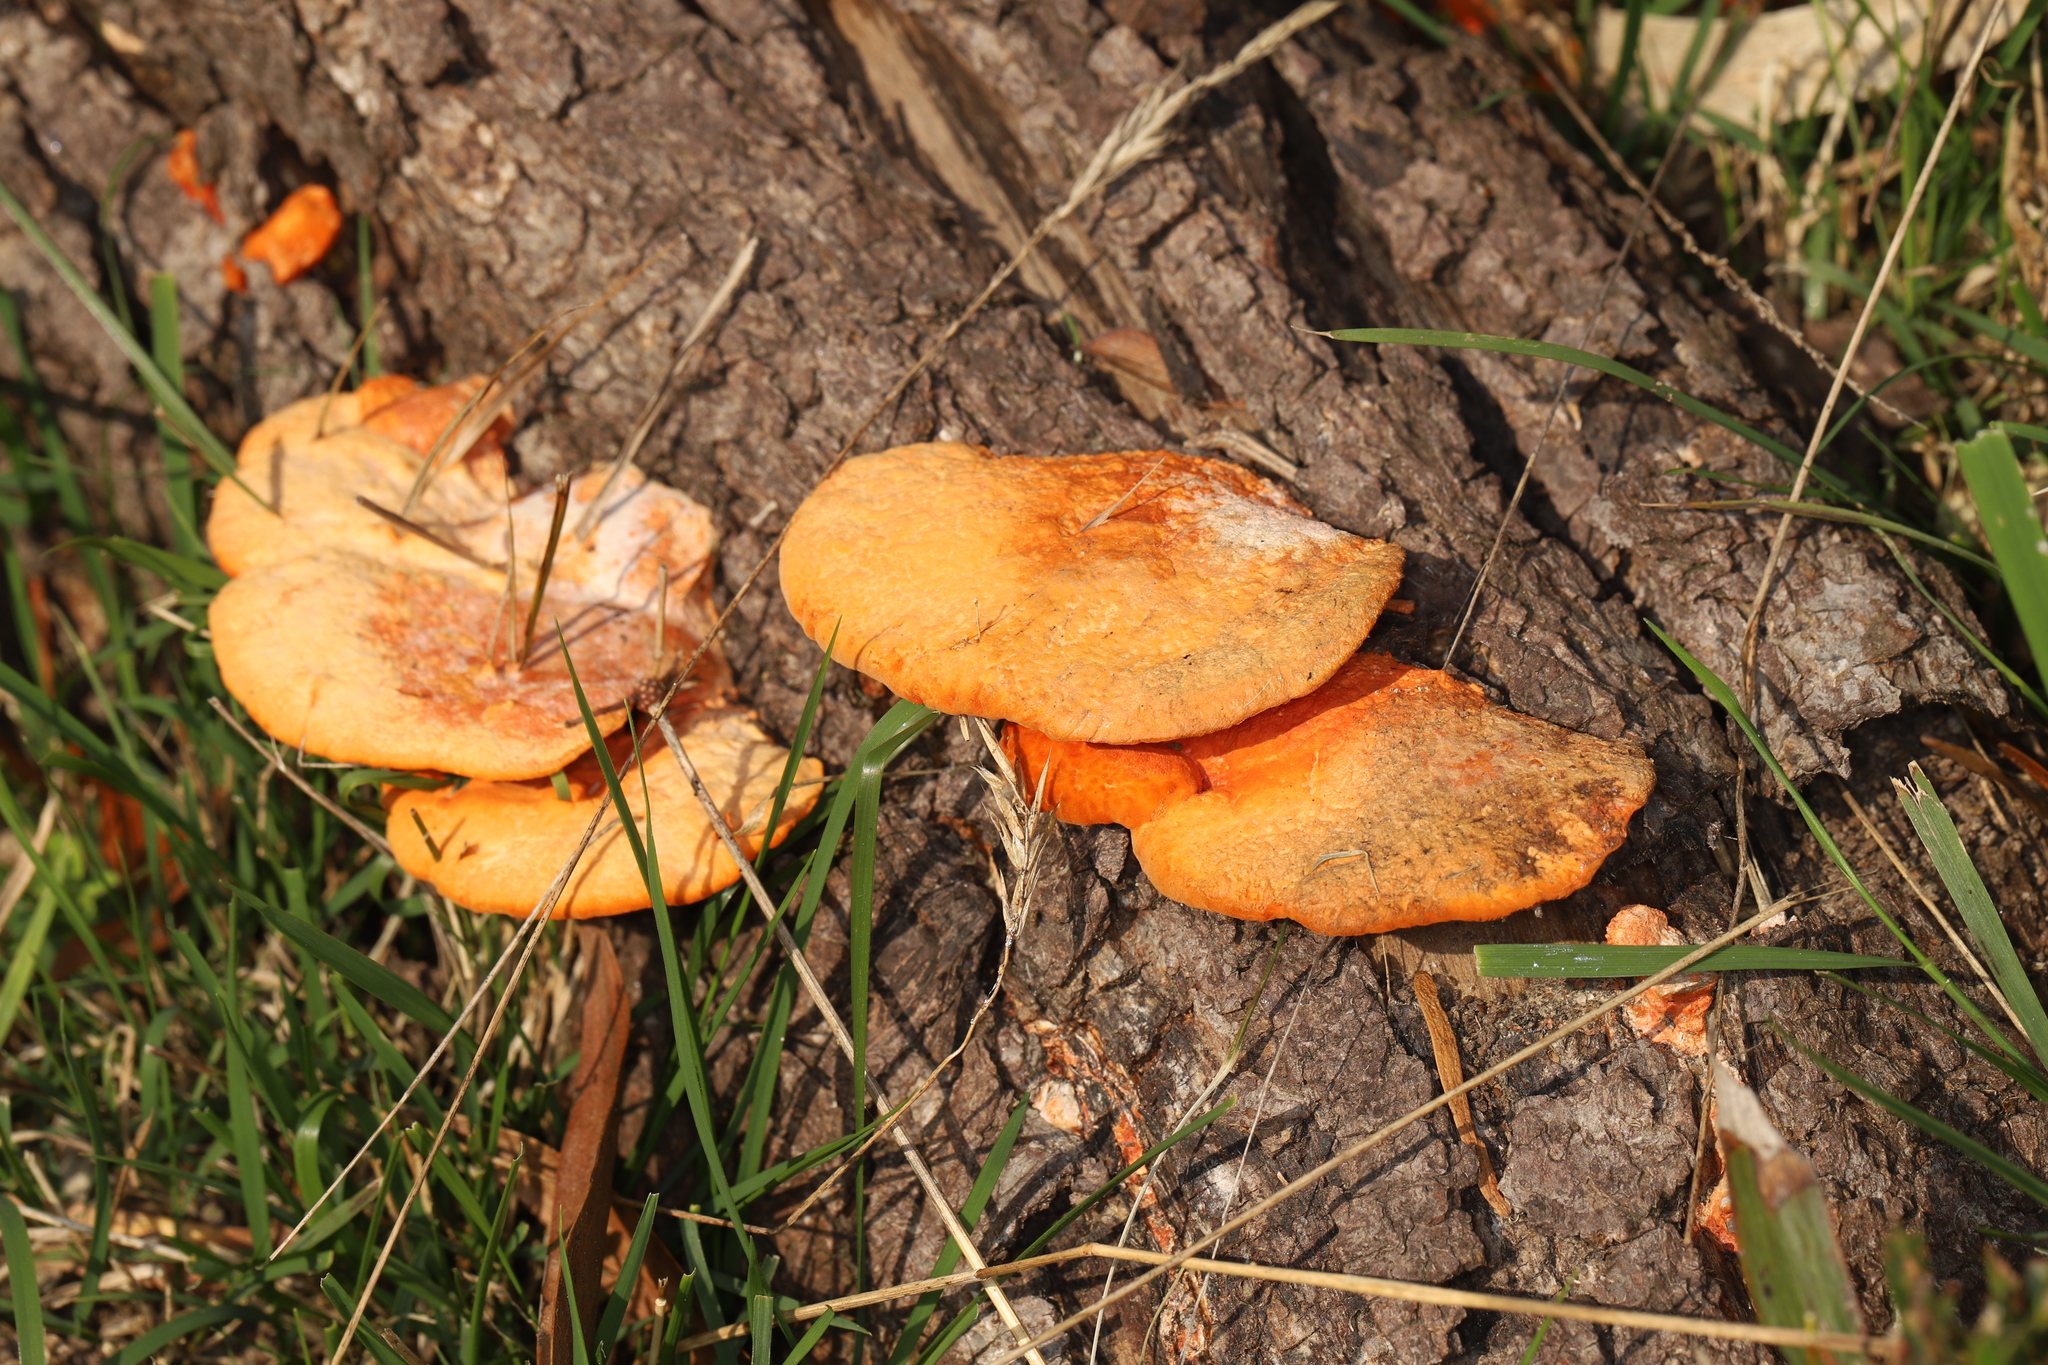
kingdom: Fungi
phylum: Basidiomycota
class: Agaricomycetes
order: Polyporales
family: Polyporaceae
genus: Trametes
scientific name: Trametes coccinea
